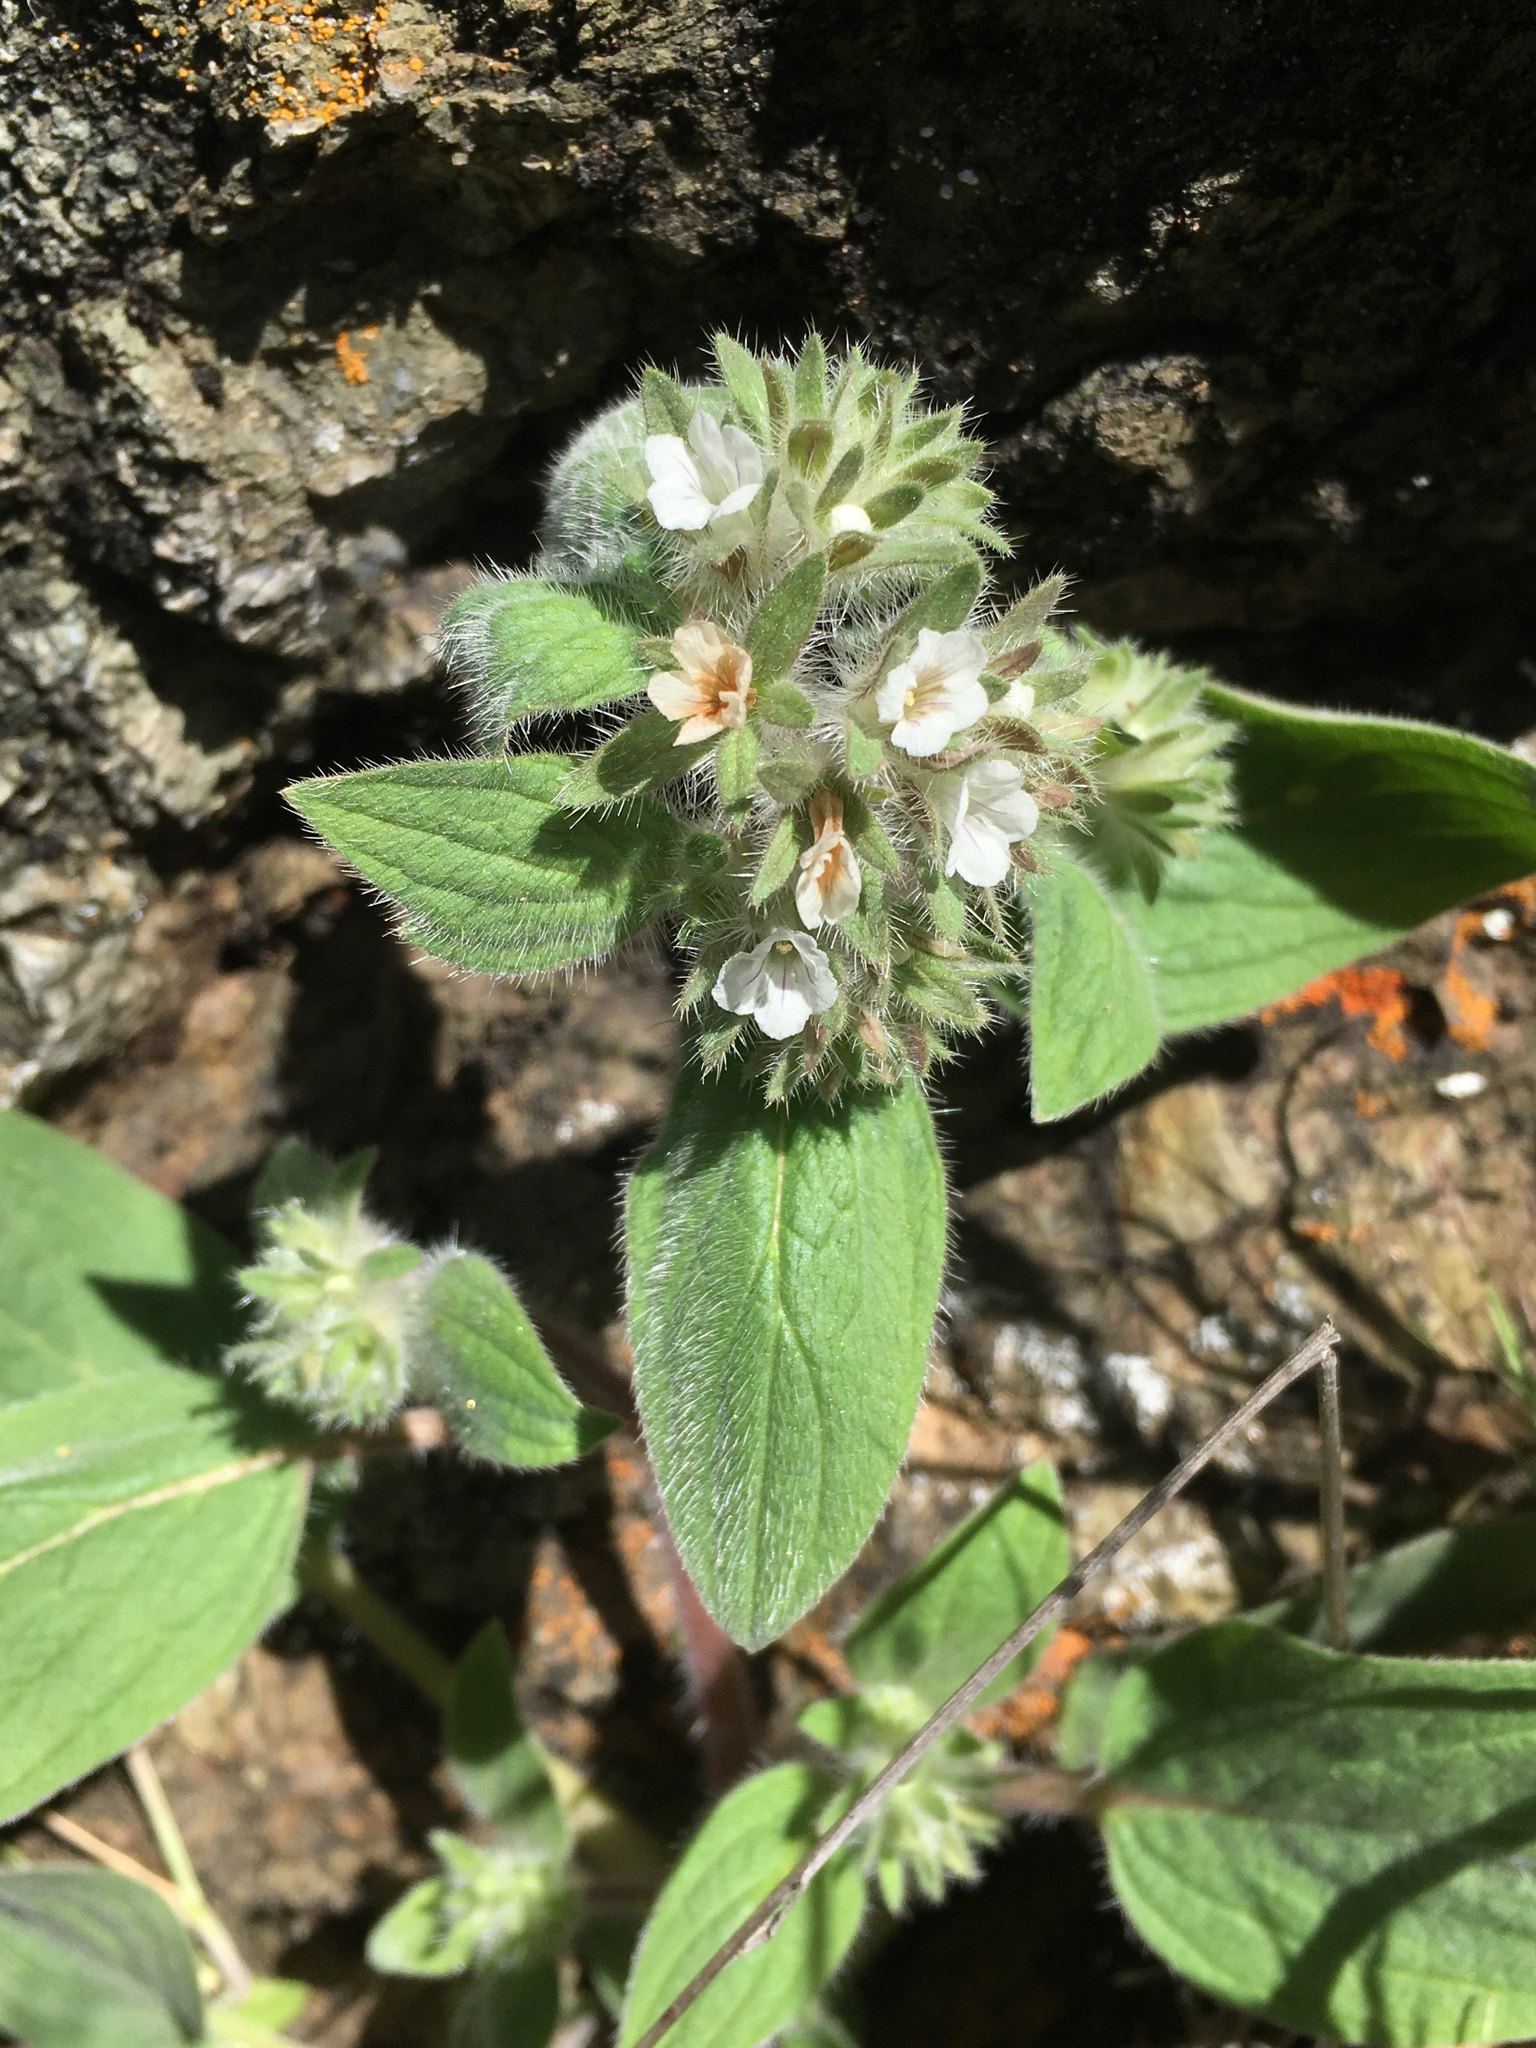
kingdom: Plantae
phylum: Tracheophyta
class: Magnoliopsida
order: Boraginales
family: Hydrophyllaceae
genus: Phacelia
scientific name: Phacelia phacelioides
